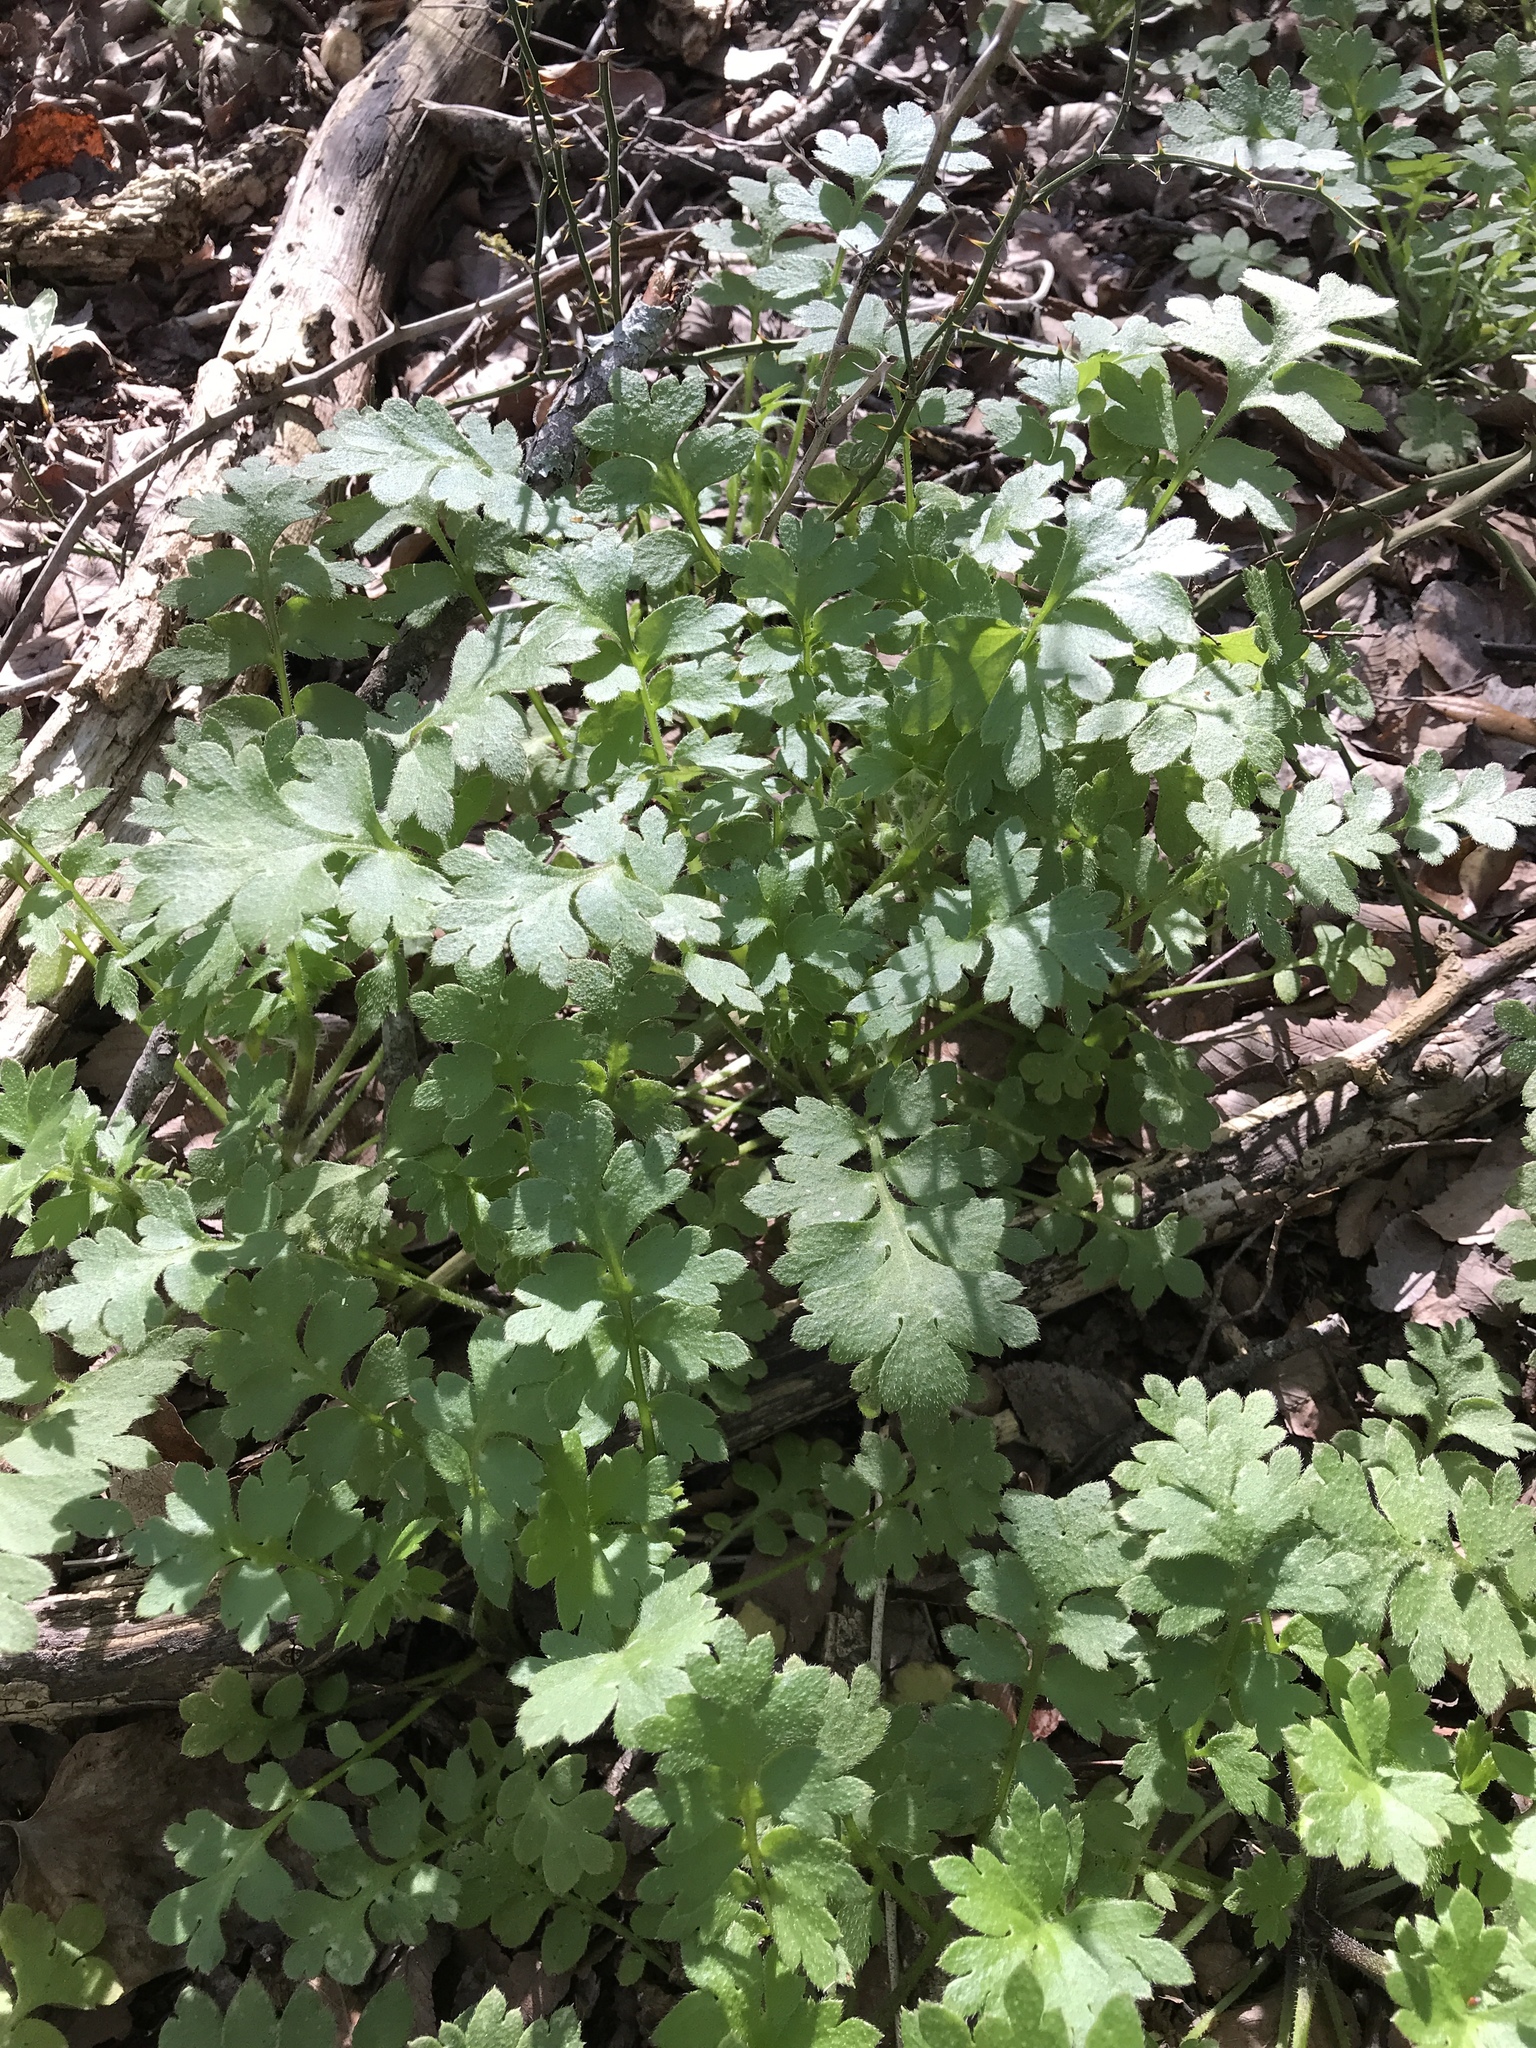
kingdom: Plantae
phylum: Tracheophyta
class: Magnoliopsida
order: Boraginales
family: Hydrophyllaceae
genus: Nemophila
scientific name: Nemophila phacelioides
